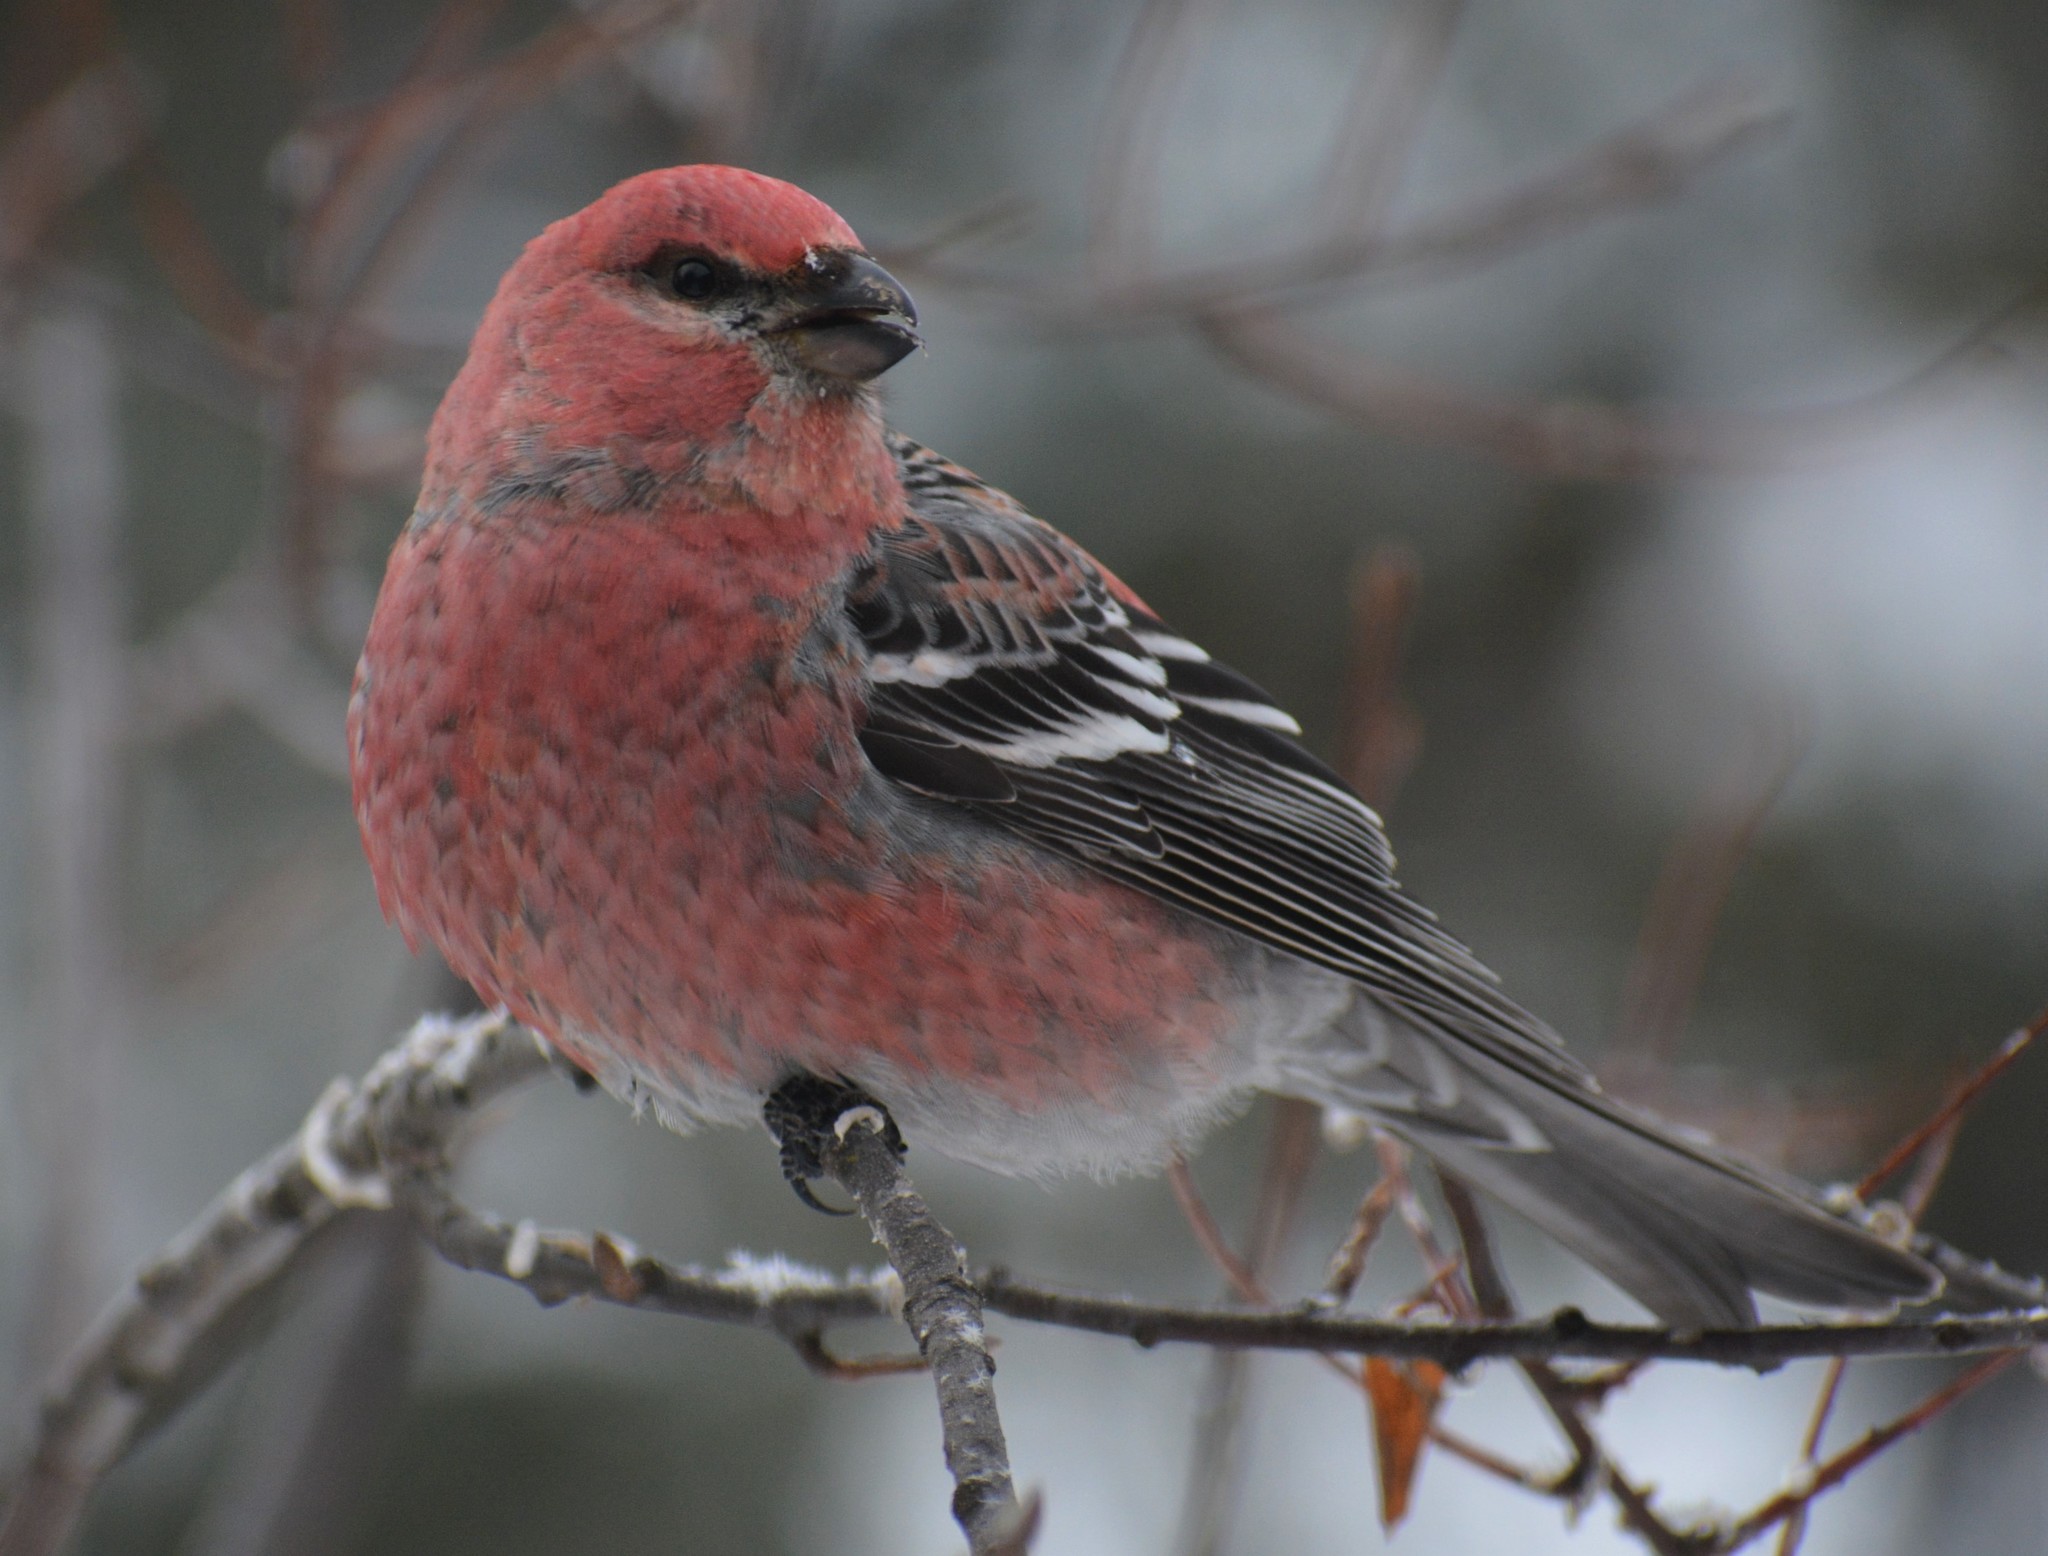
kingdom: Animalia
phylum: Chordata
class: Aves
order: Passeriformes
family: Fringillidae
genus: Pinicola
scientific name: Pinicola enucleator
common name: Pine grosbeak
